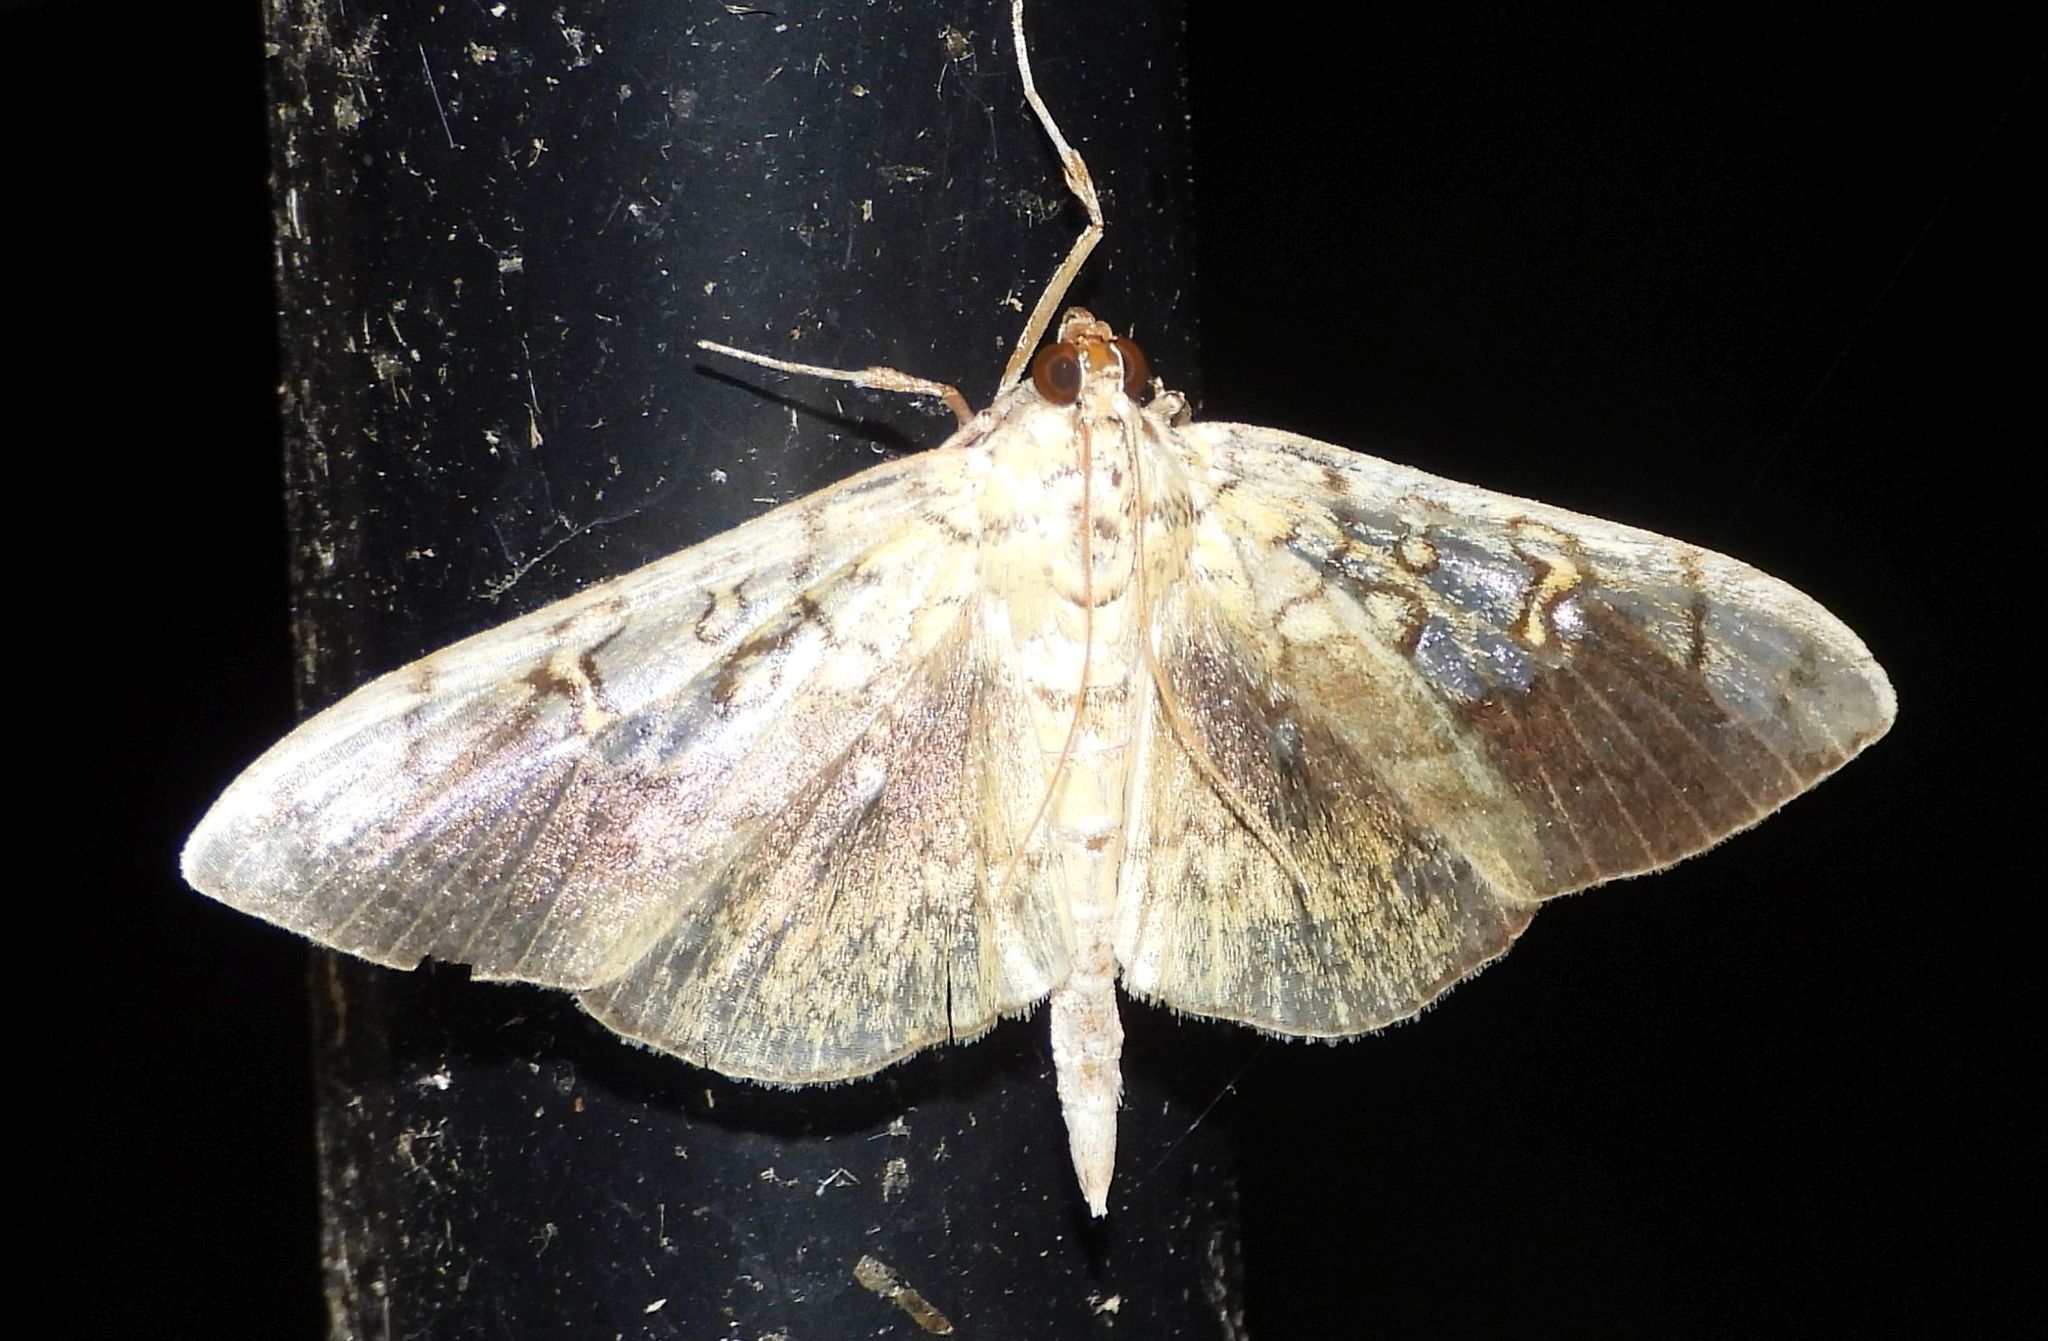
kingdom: Animalia
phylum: Arthropoda
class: Insecta
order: Lepidoptera
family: Crambidae
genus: Pantographa
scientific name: Pantographa limata
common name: Basswood leafroller moth
